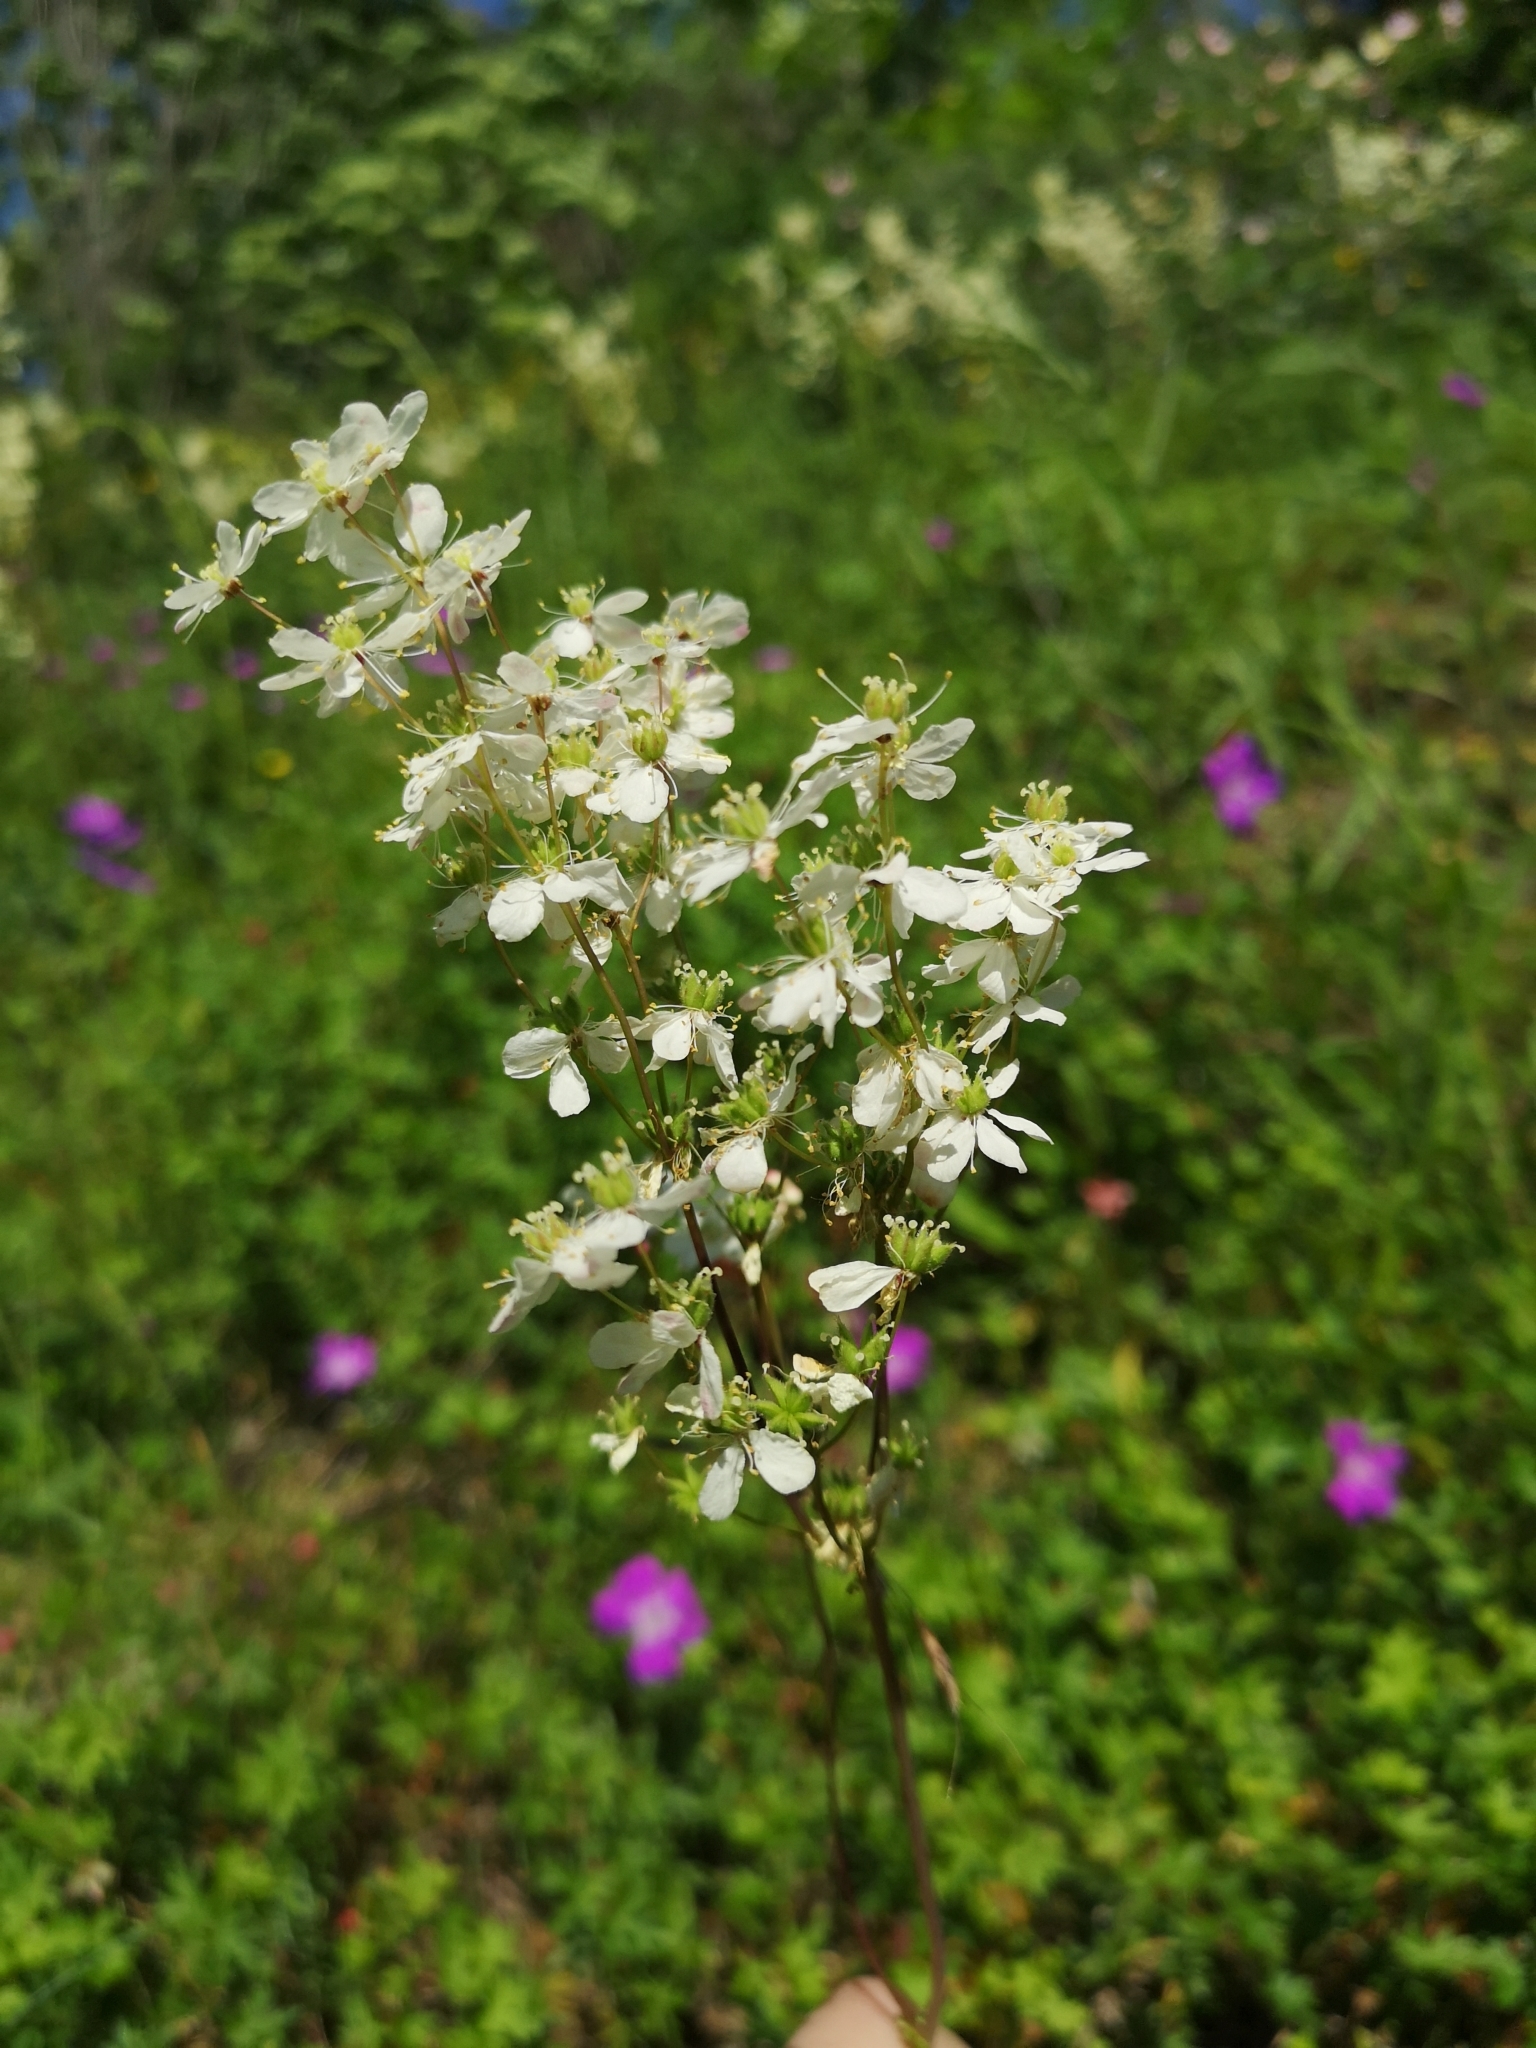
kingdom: Plantae
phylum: Tracheophyta
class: Magnoliopsida
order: Rosales
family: Rosaceae
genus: Filipendula
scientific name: Filipendula vulgaris
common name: Dropwort
